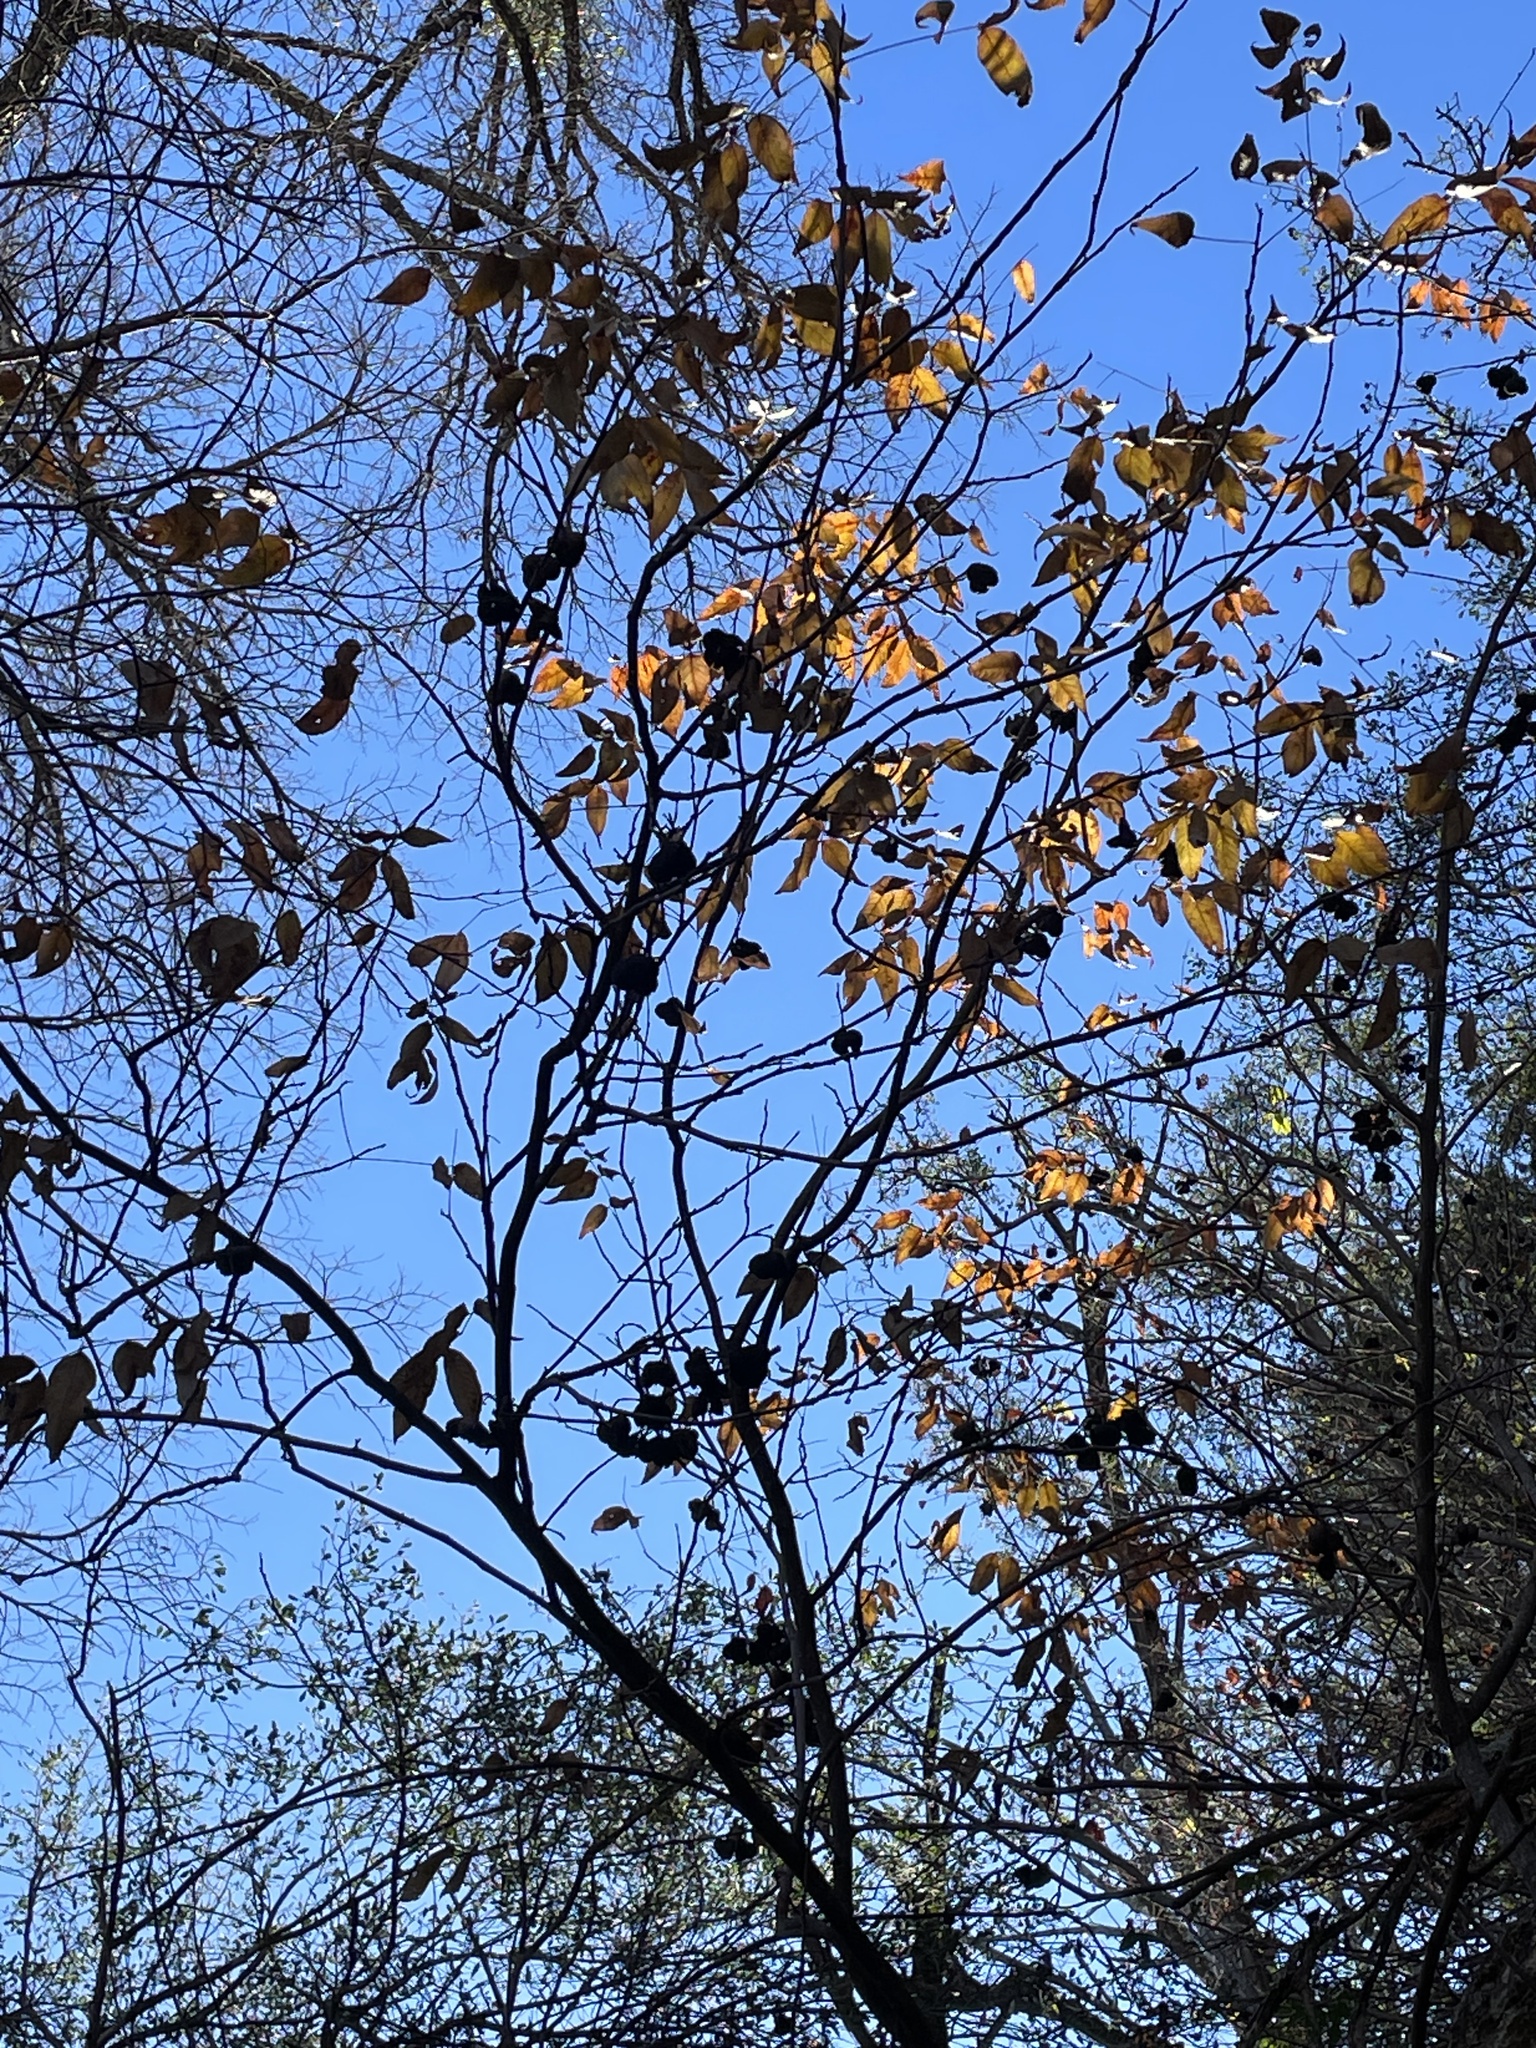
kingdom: Plantae
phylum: Tracheophyta
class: Magnoliopsida
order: Sapindales
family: Sapindaceae
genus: Ungnadia
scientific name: Ungnadia speciosa
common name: Texas-buckeye
